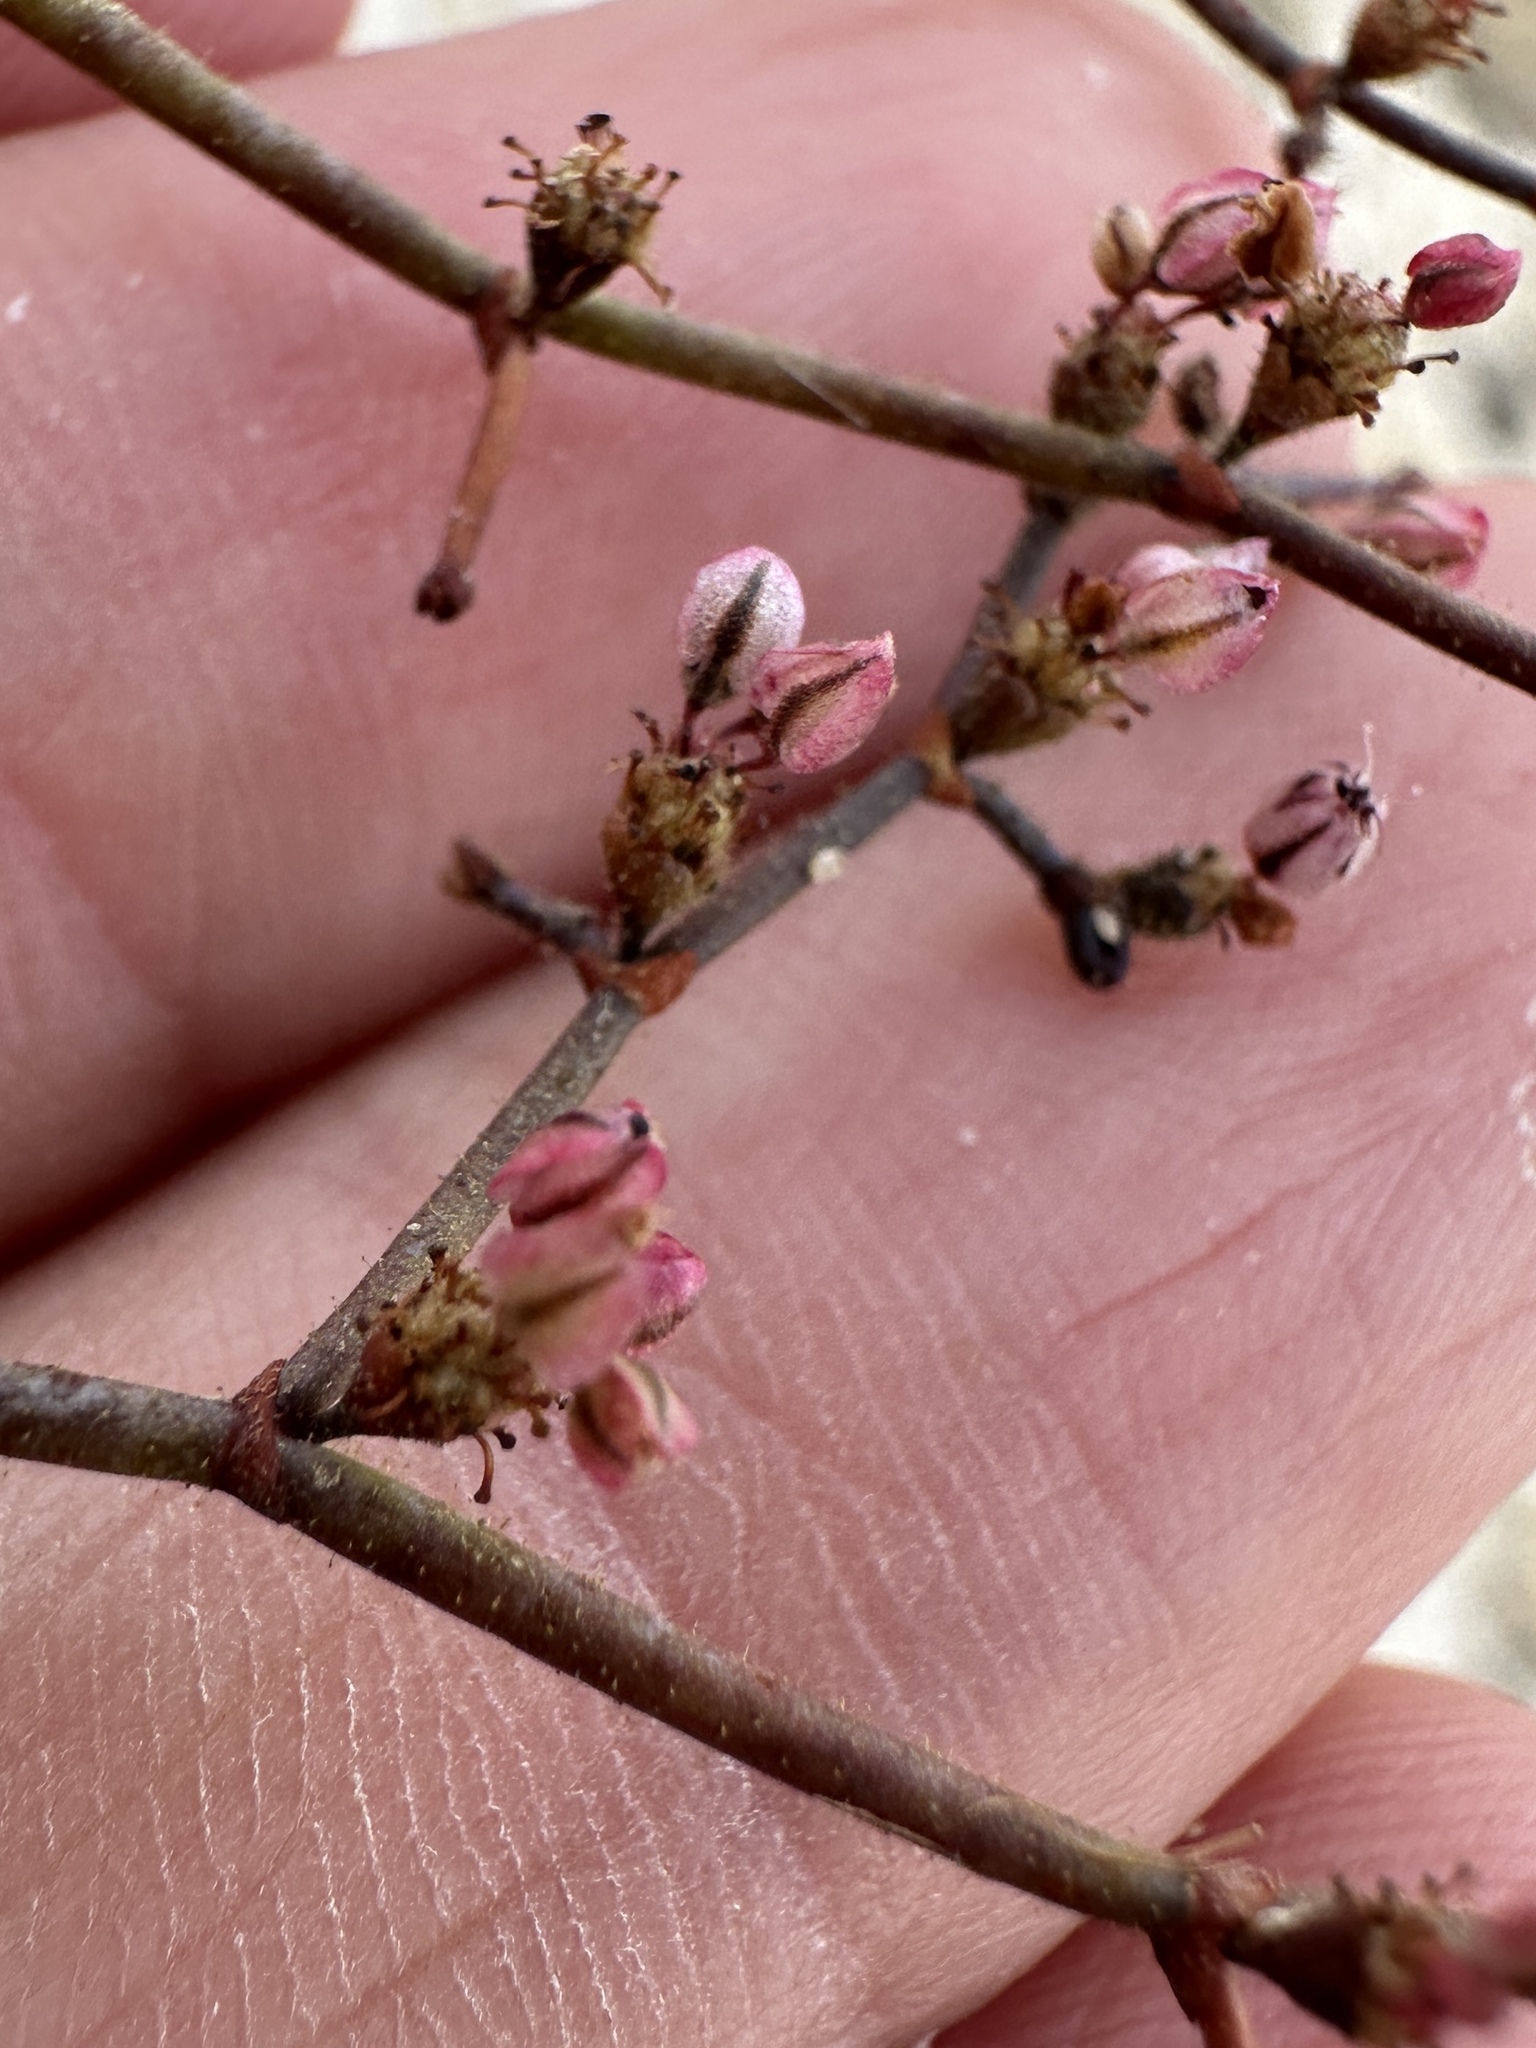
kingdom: Plantae
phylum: Tracheophyta
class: Magnoliopsida
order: Caryophyllales
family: Polygonaceae
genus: Eriogonum
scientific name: Eriogonum brachypodum
